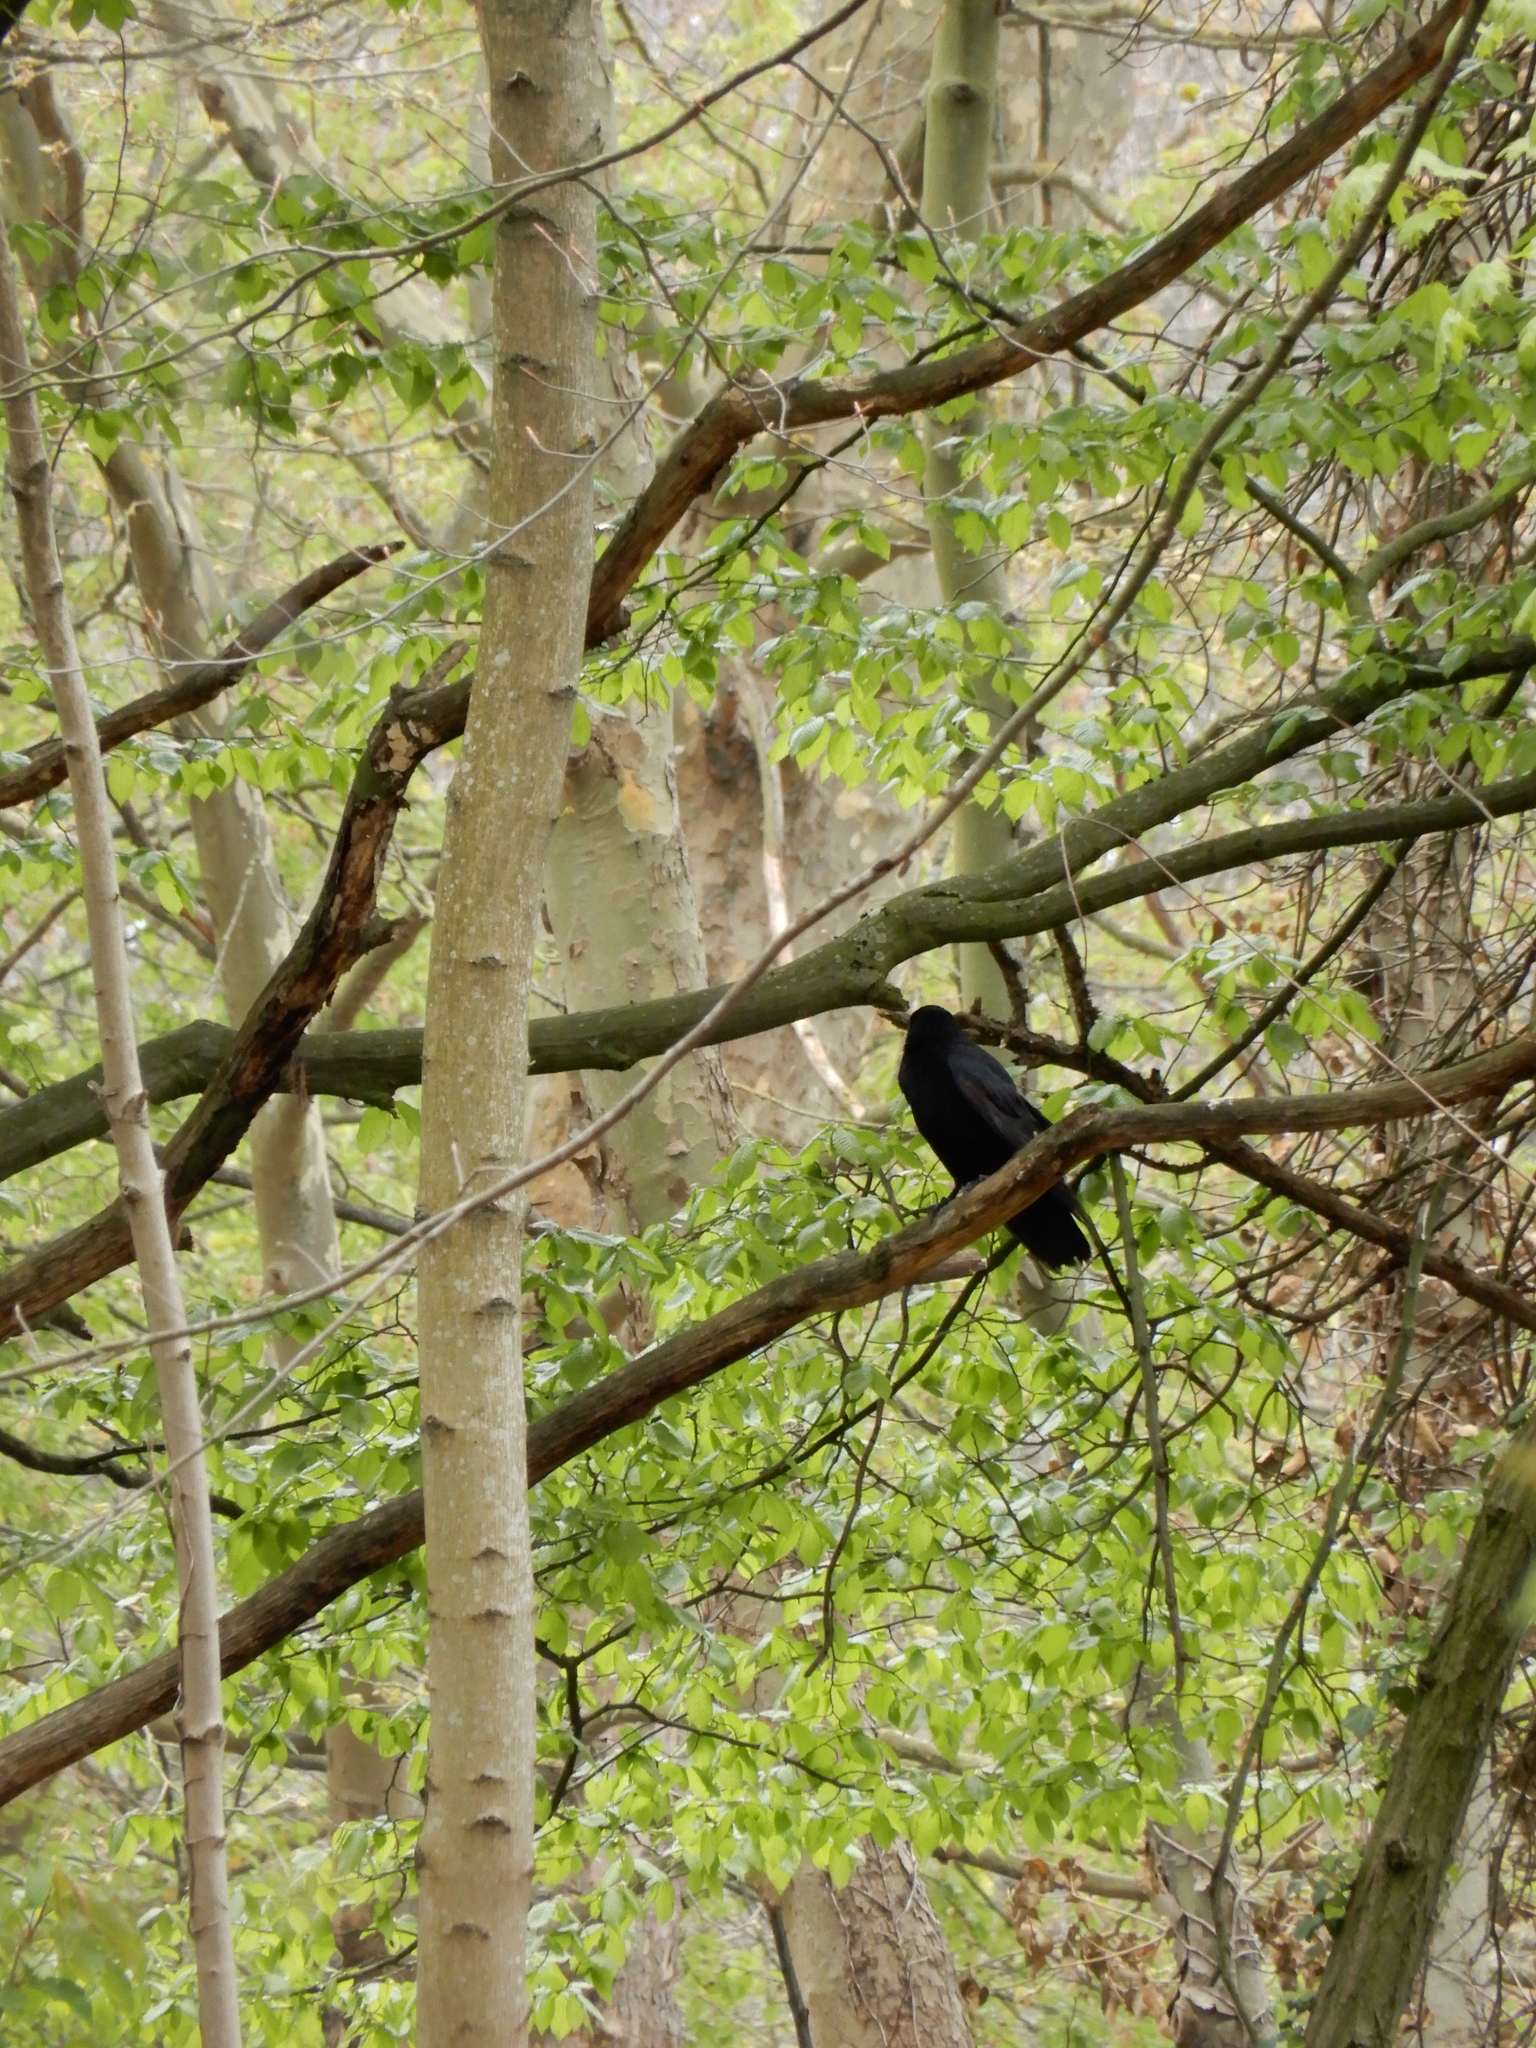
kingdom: Animalia
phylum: Chordata
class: Aves
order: Passeriformes
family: Corvidae
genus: Corvus
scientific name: Corvus corone
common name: Carrion crow
